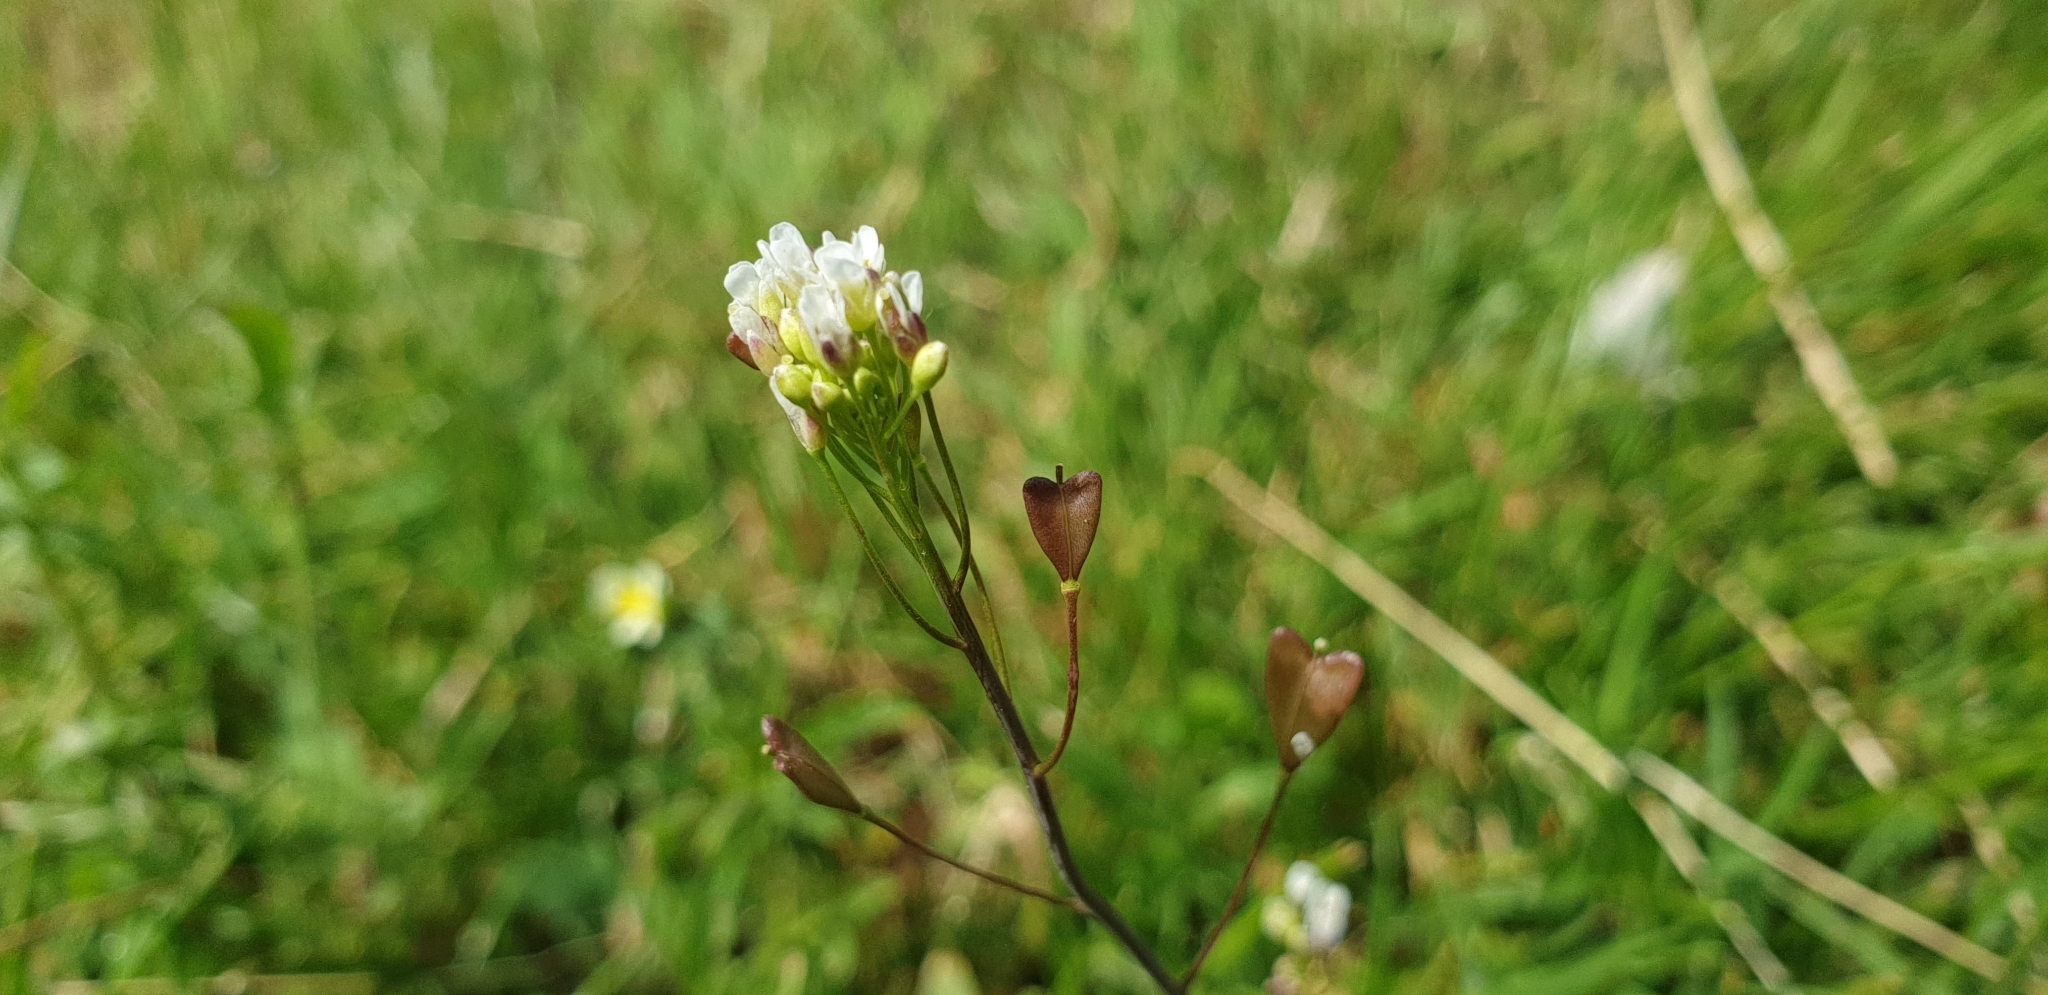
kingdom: Plantae
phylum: Tracheophyta
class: Magnoliopsida
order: Brassicales
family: Brassicaceae
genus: Capsella
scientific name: Capsella bursa-pastoris
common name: Shepherd's purse
